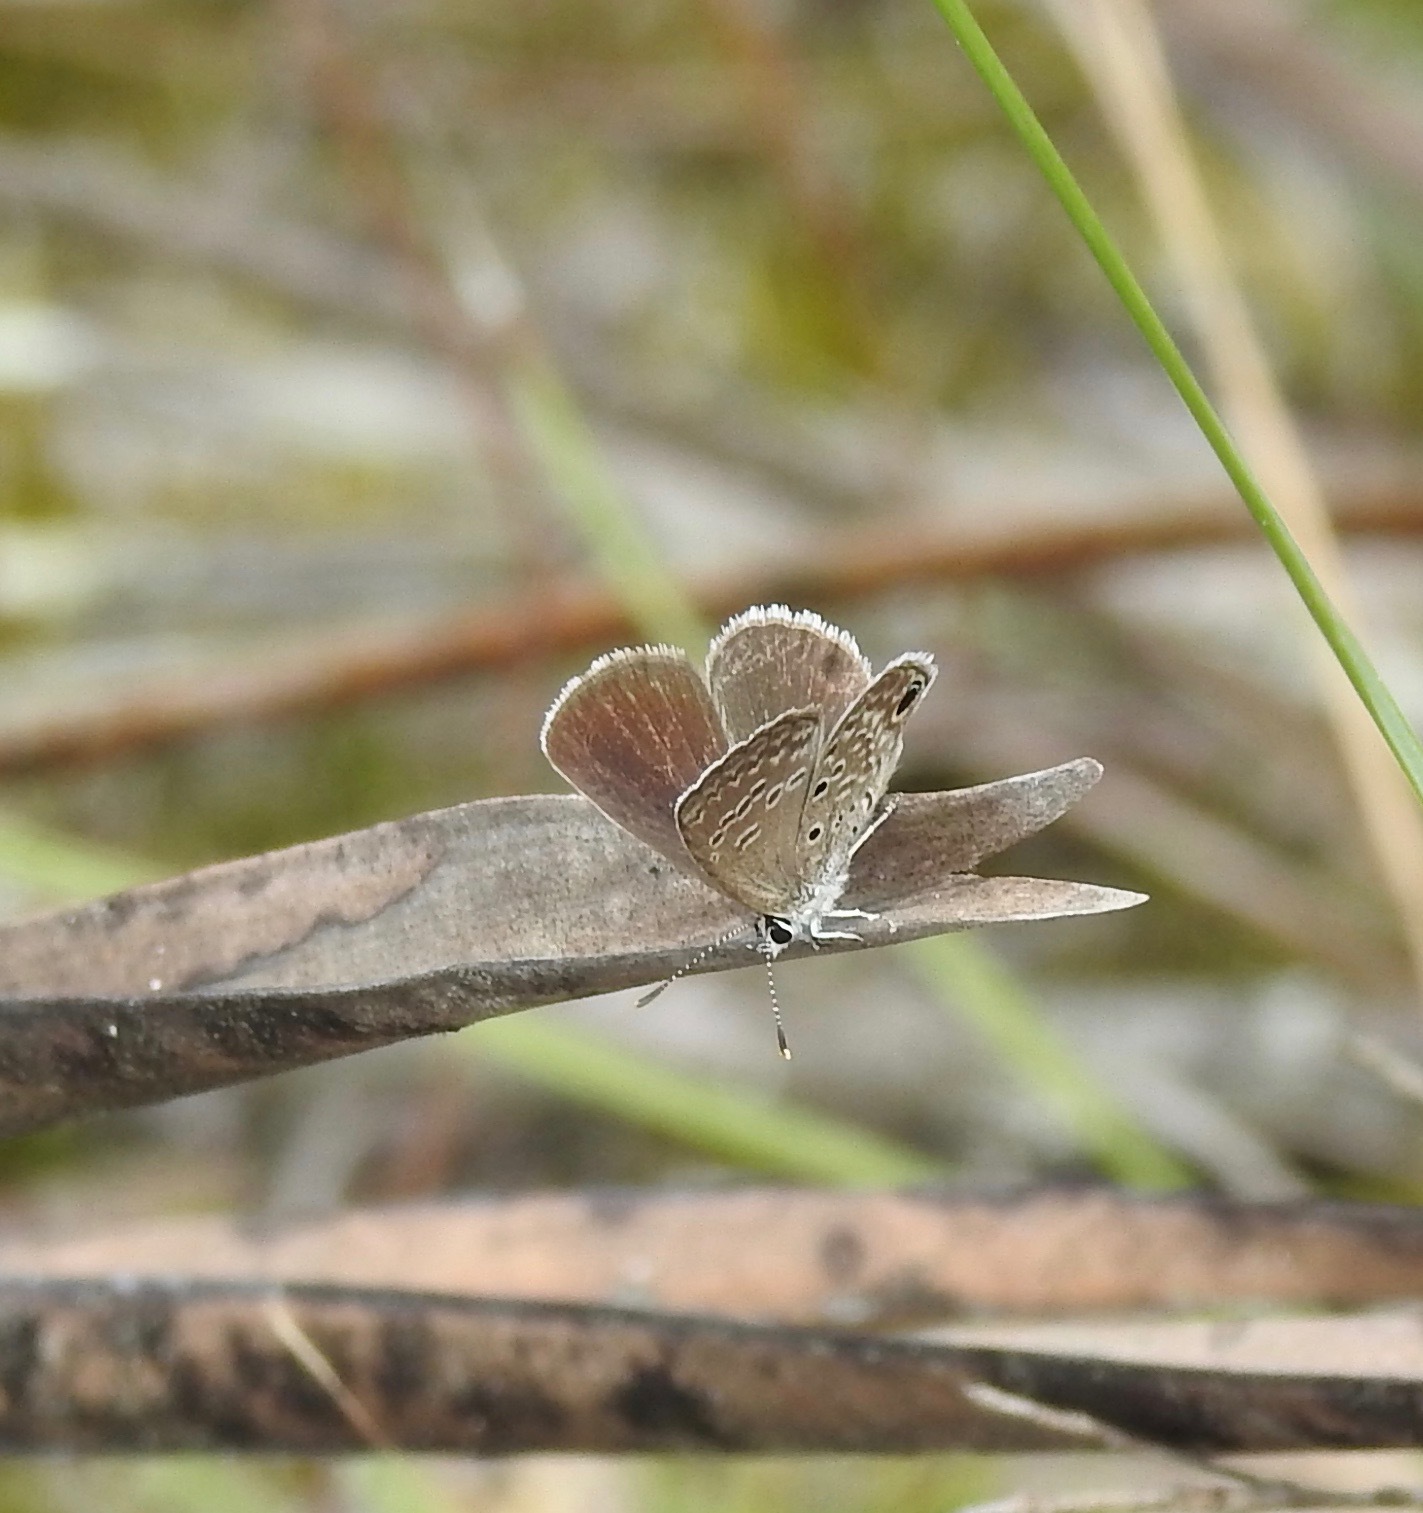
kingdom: Animalia
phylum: Arthropoda
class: Insecta
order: Lepidoptera
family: Lycaenidae
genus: Hemiargus
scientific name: Hemiargus ceraunus
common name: Ceraunus blue
